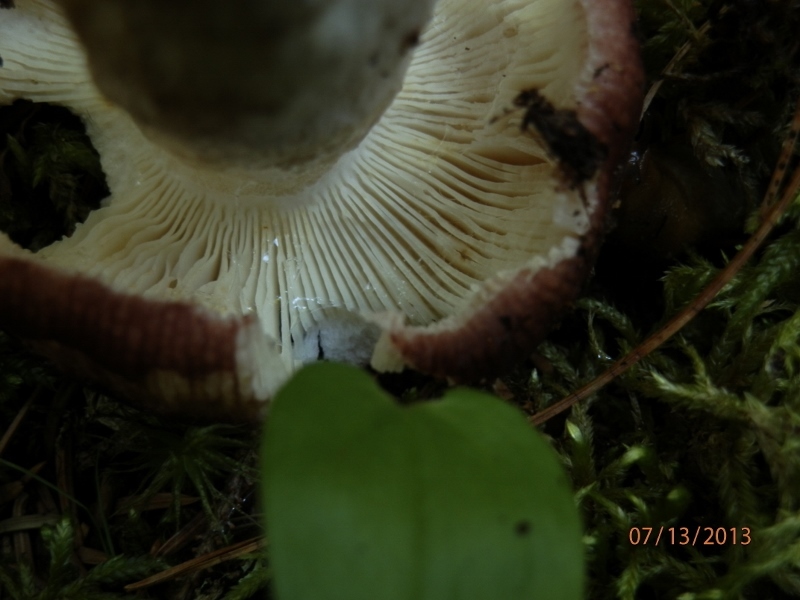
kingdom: Fungi
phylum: Basidiomycota
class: Agaricomycetes
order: Russulales
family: Russulaceae
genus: Russula
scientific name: Russula atropurpurea
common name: Blackish-purple russula
